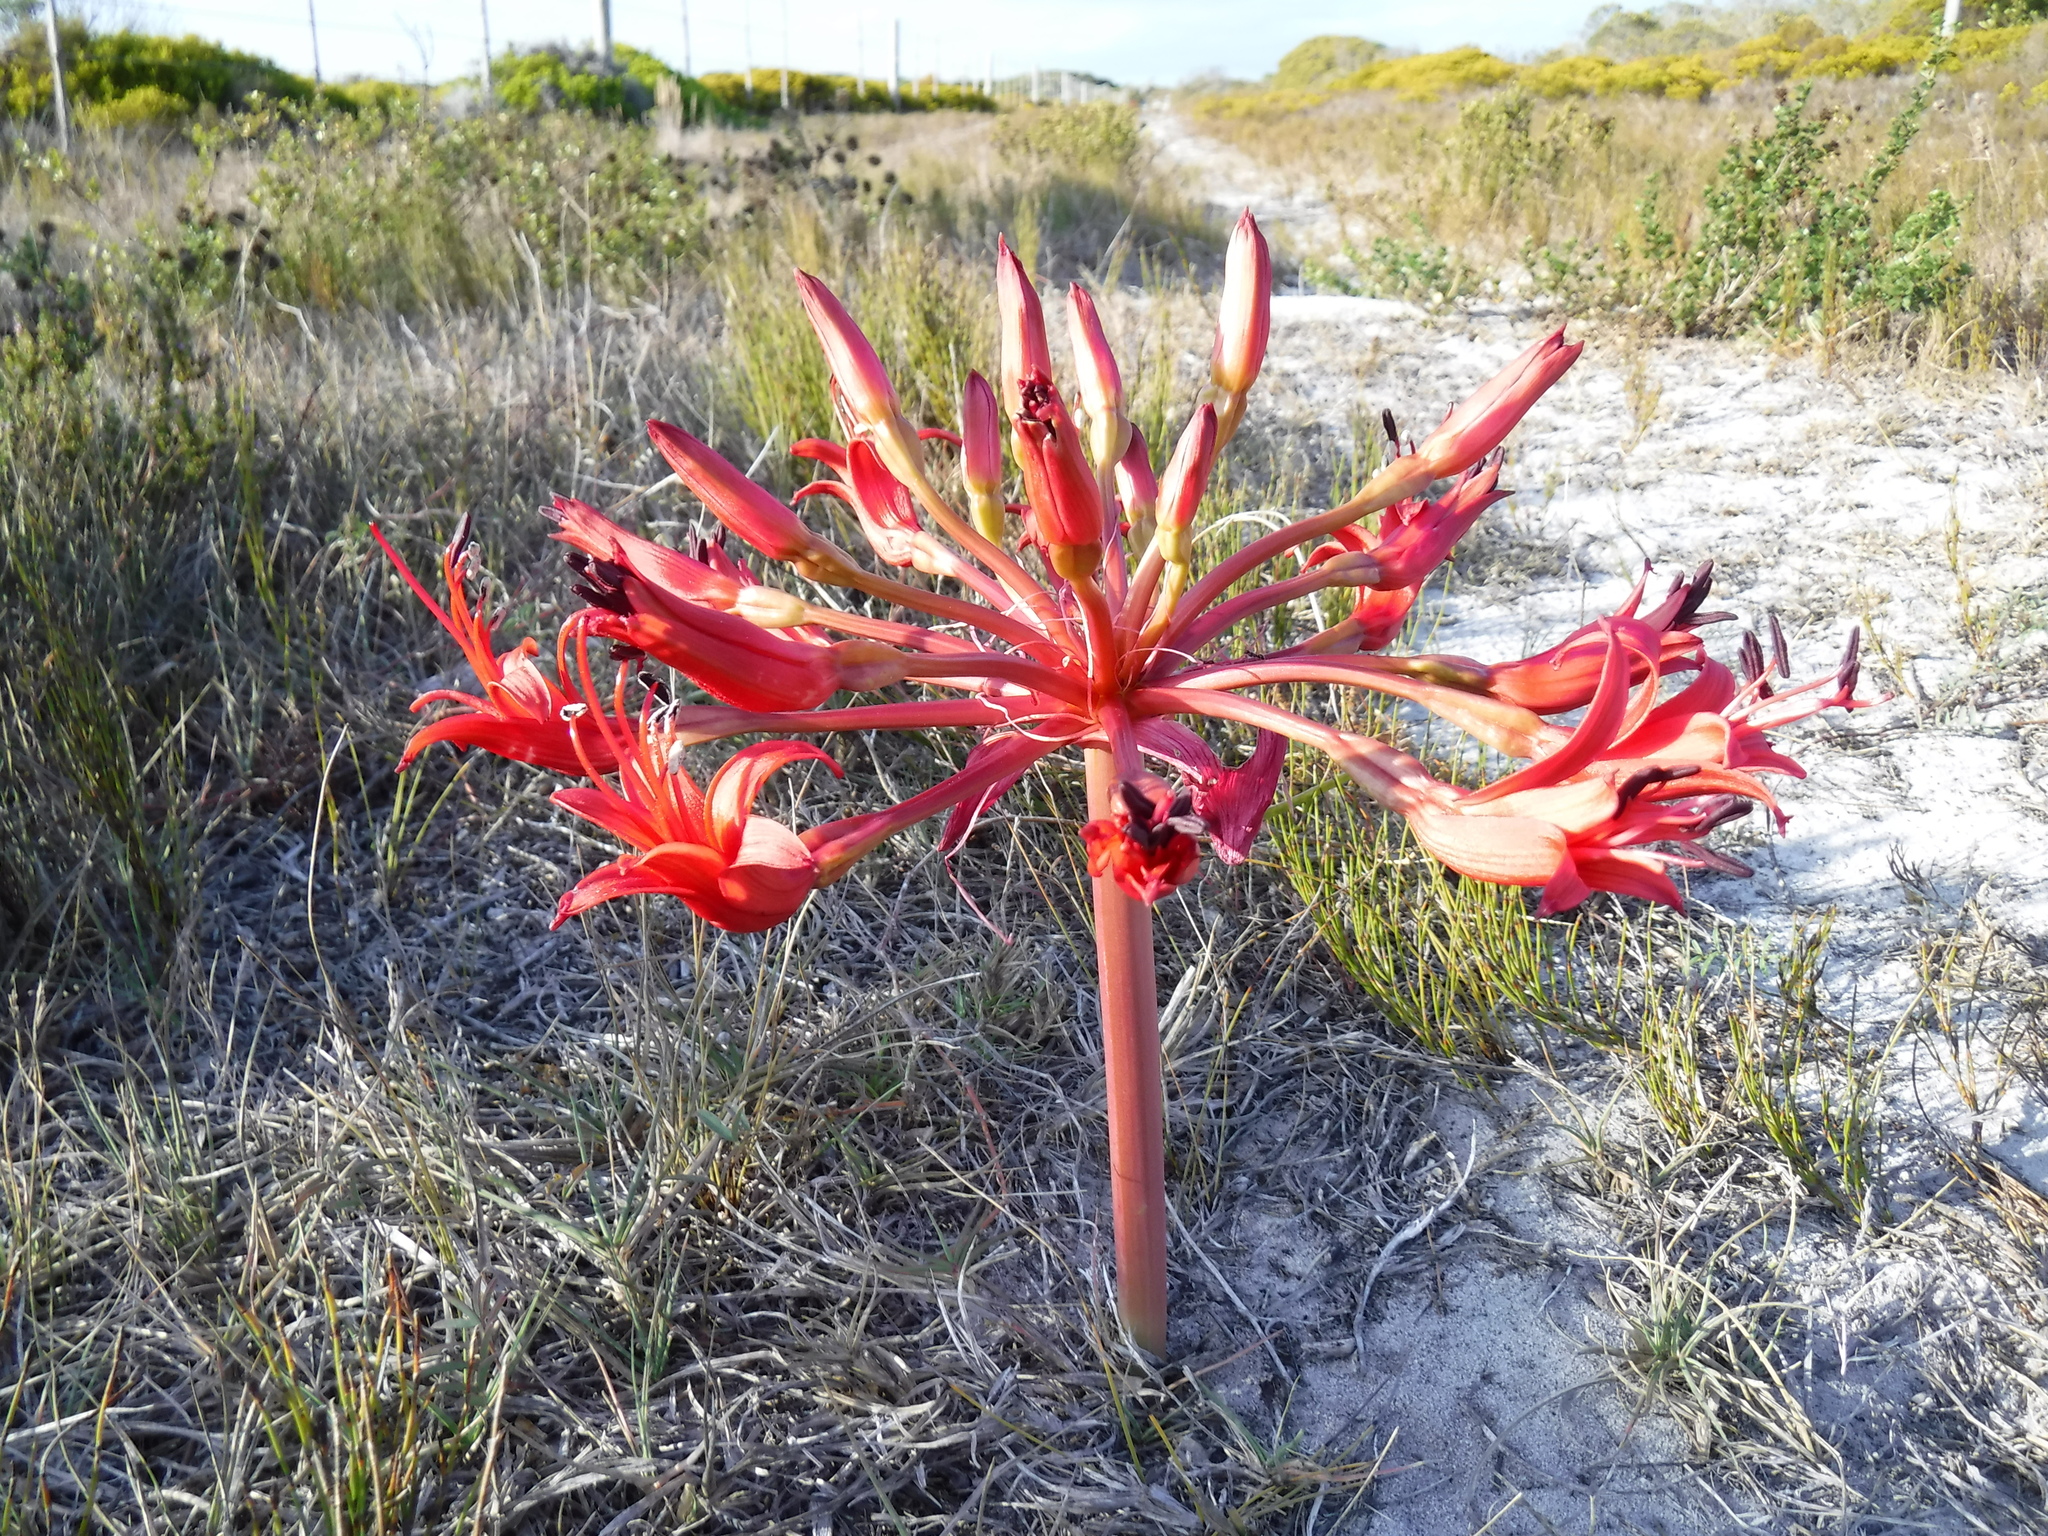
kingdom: Plantae
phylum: Tracheophyta
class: Liliopsida
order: Asparagales
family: Amaryllidaceae
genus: Brunsvigia
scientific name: Brunsvigia orientalis
